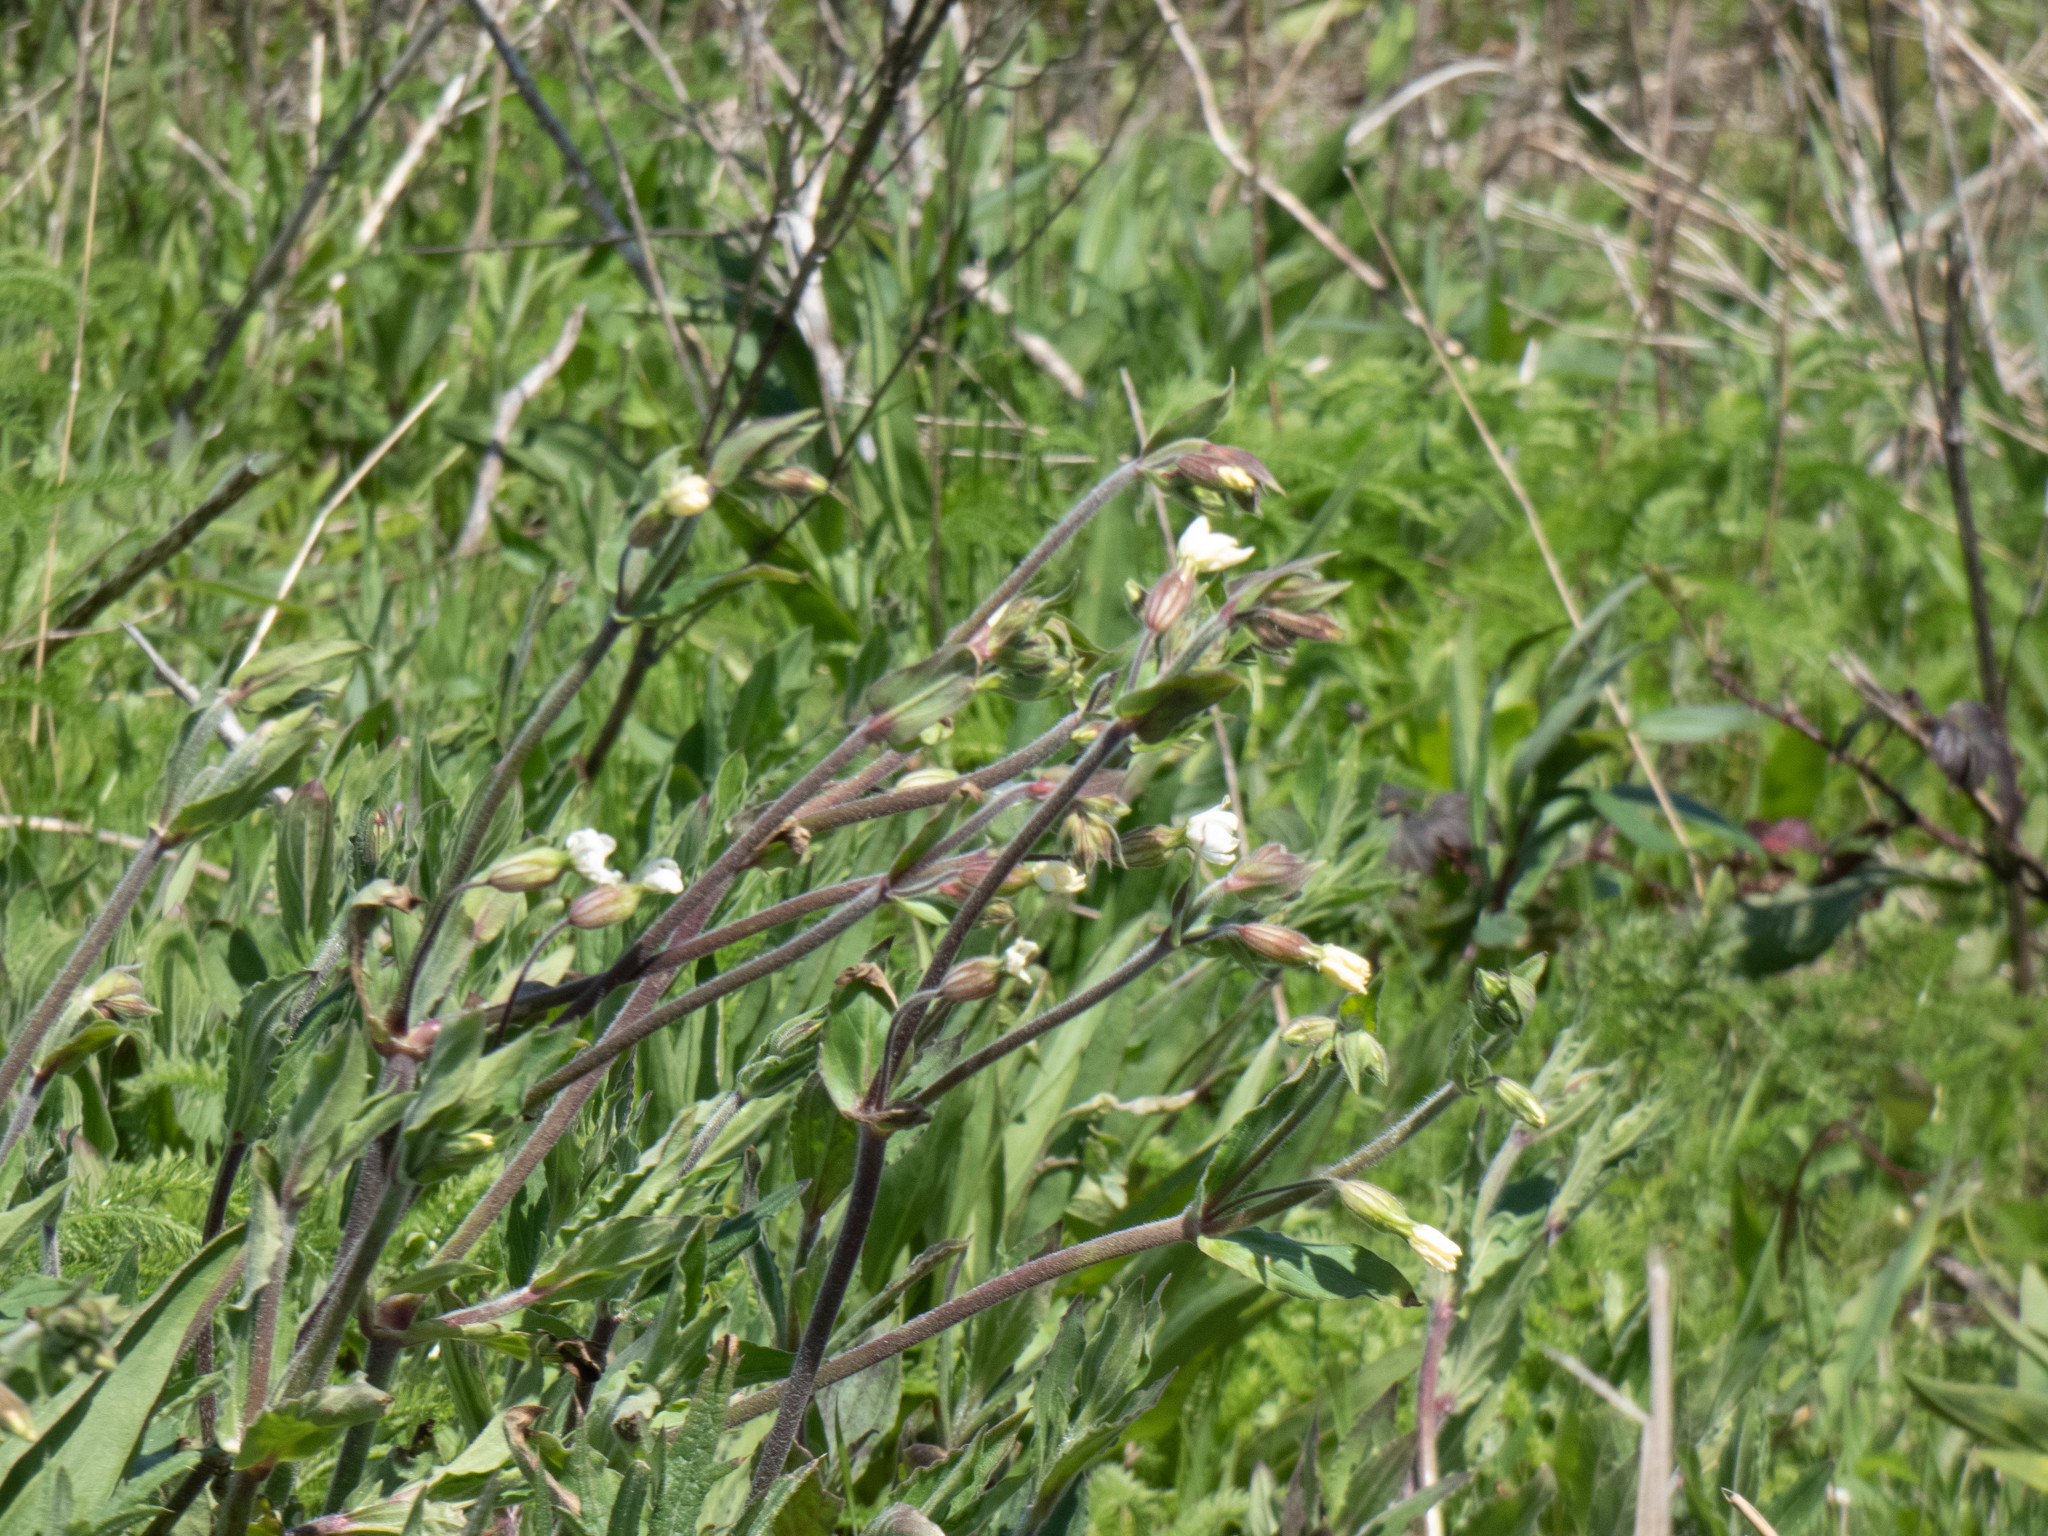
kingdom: Plantae
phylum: Tracheophyta
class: Magnoliopsida
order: Caryophyllales
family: Caryophyllaceae
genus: Silene
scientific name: Silene latifolia
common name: White campion
